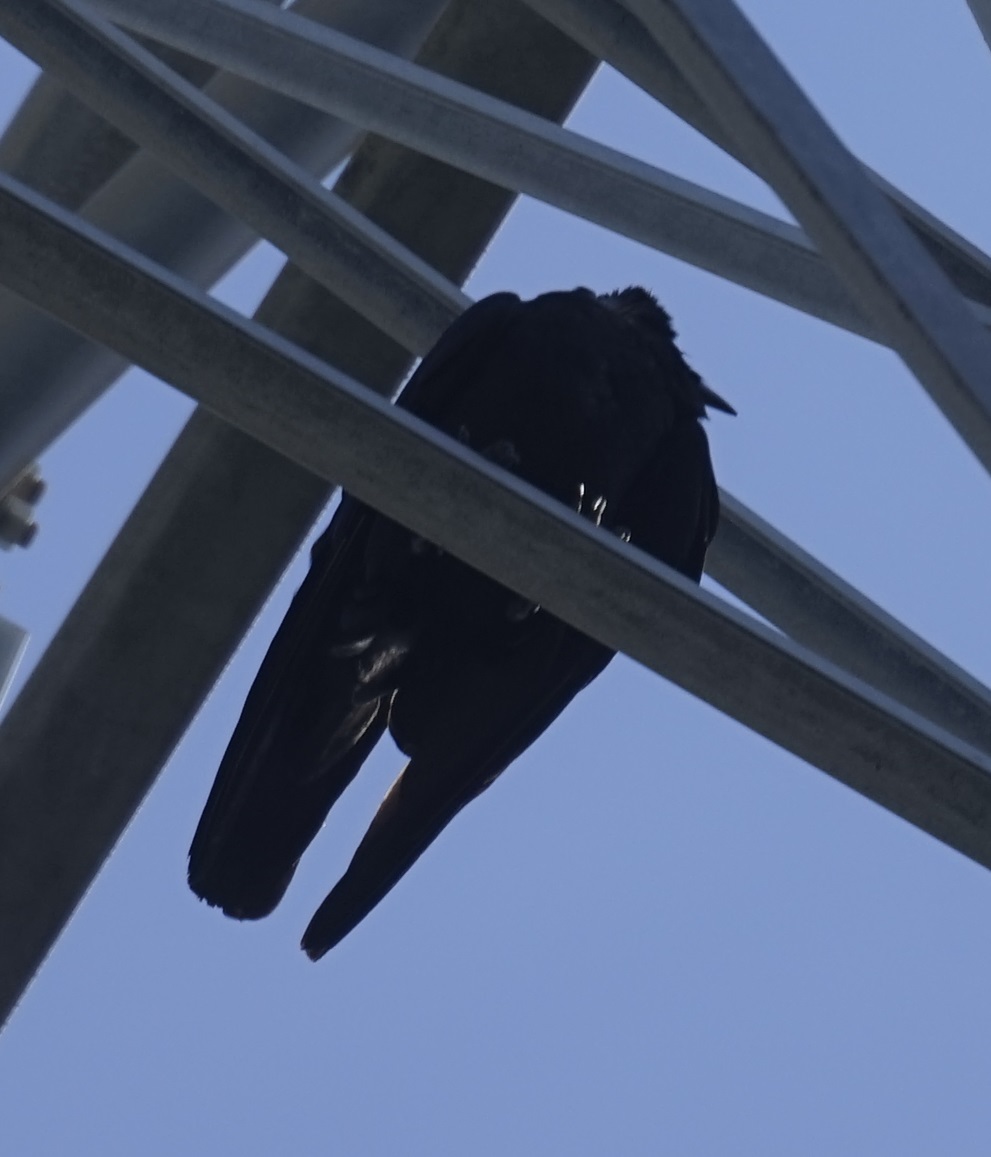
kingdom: Animalia
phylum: Chordata
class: Aves
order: Passeriformes
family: Corvidae
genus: Corvus
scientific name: Corvus coronoides
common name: Australian raven
